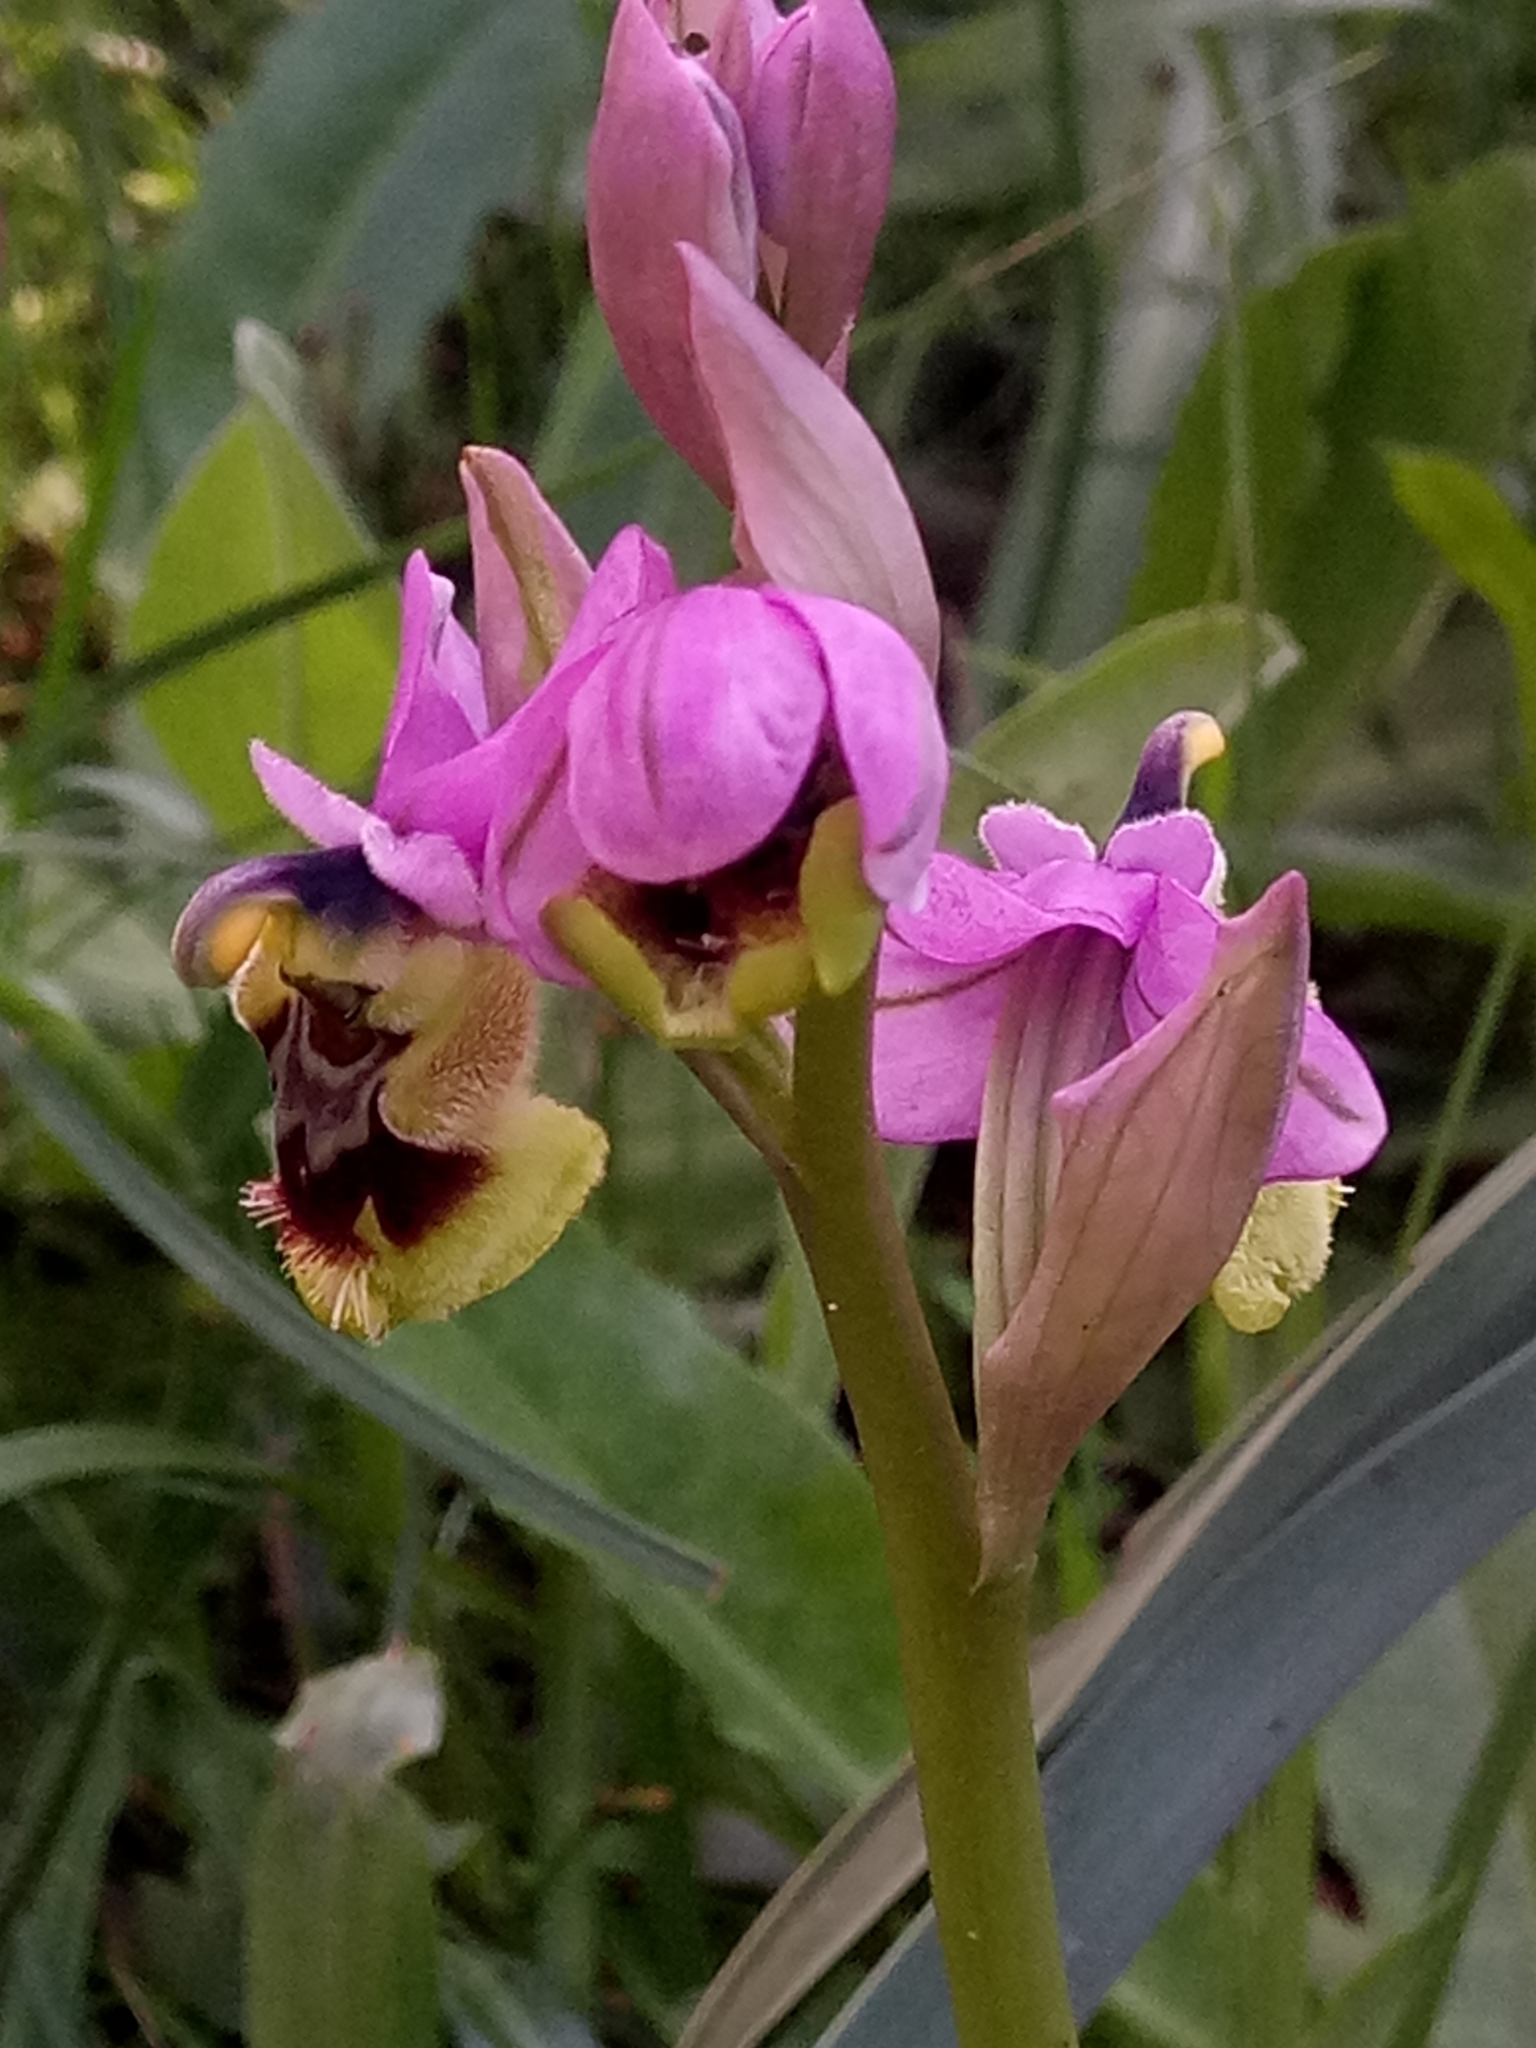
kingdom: Plantae
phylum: Tracheophyta
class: Liliopsida
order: Asparagales
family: Orchidaceae
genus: Ophrys
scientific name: Ophrys tenthredinifera
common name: Sawfly orchid
